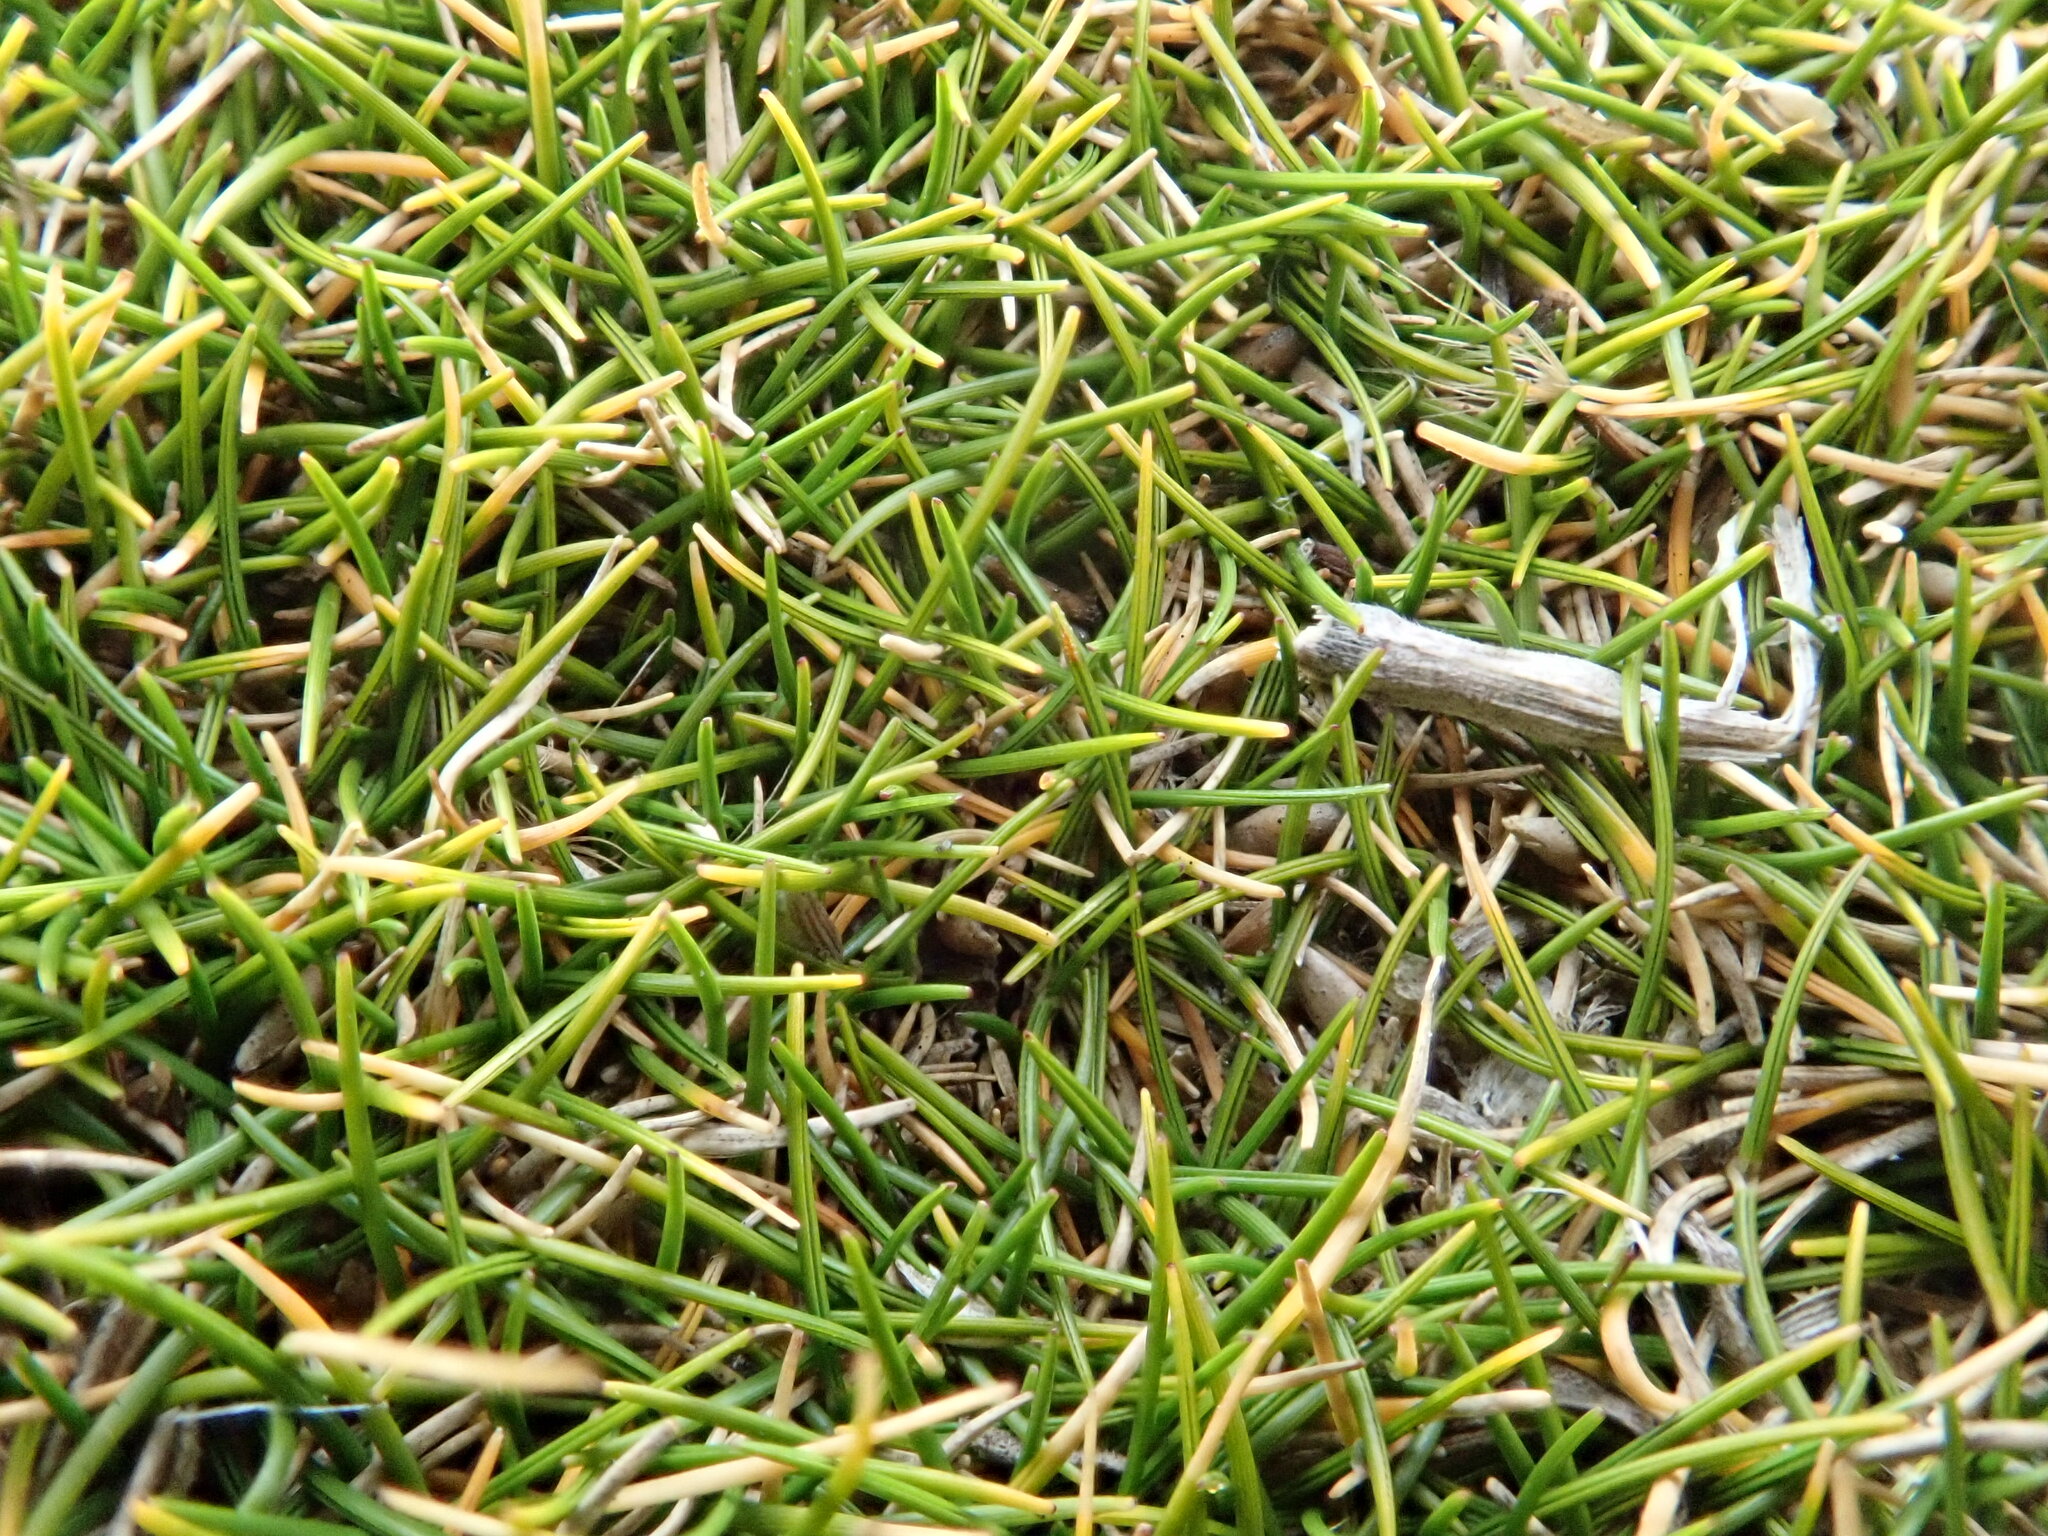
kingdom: Plantae
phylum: Tracheophyta
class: Liliopsida
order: Poales
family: Poaceae
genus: Zoysia
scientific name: Zoysia minima
